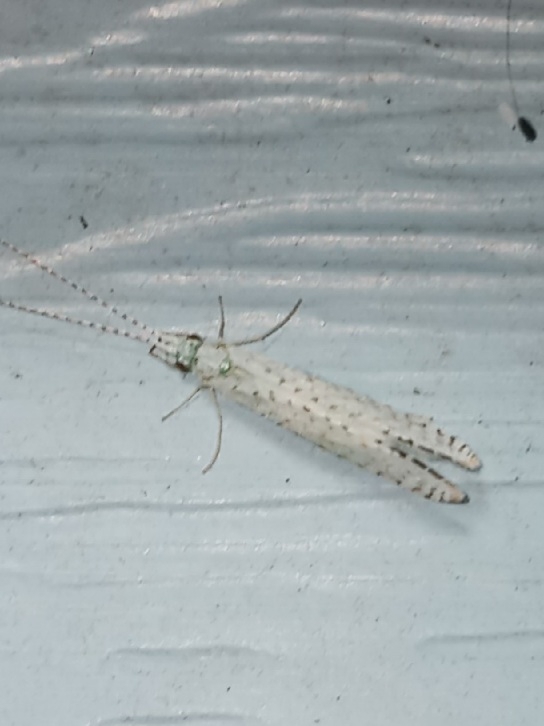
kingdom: Animalia
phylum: Arthropoda
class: Insecta
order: Trichoptera
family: Leptoceridae
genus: Nectopsyche
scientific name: Nectopsyche candida
